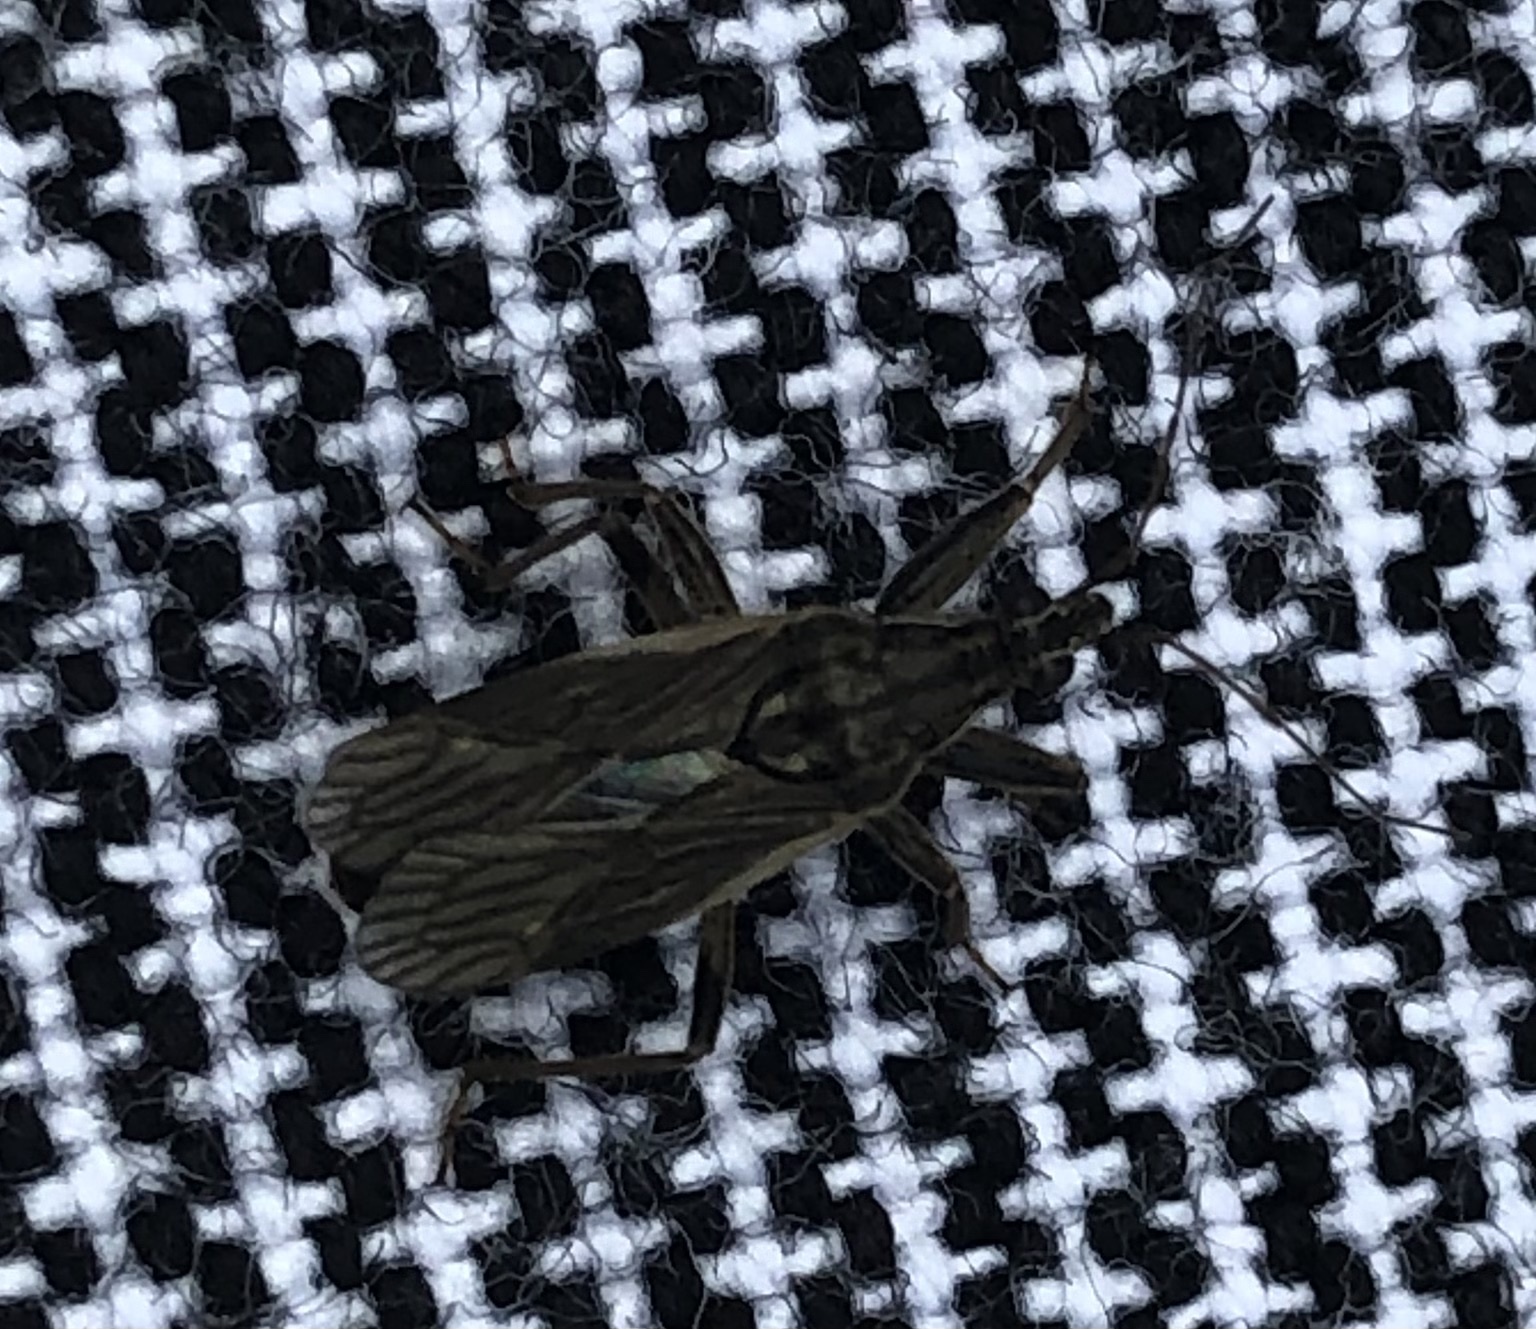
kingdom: Animalia
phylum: Arthropoda
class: Insecta
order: Hemiptera
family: Nabidae
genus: Himacerus
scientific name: Himacerus major
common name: Damsel bug
